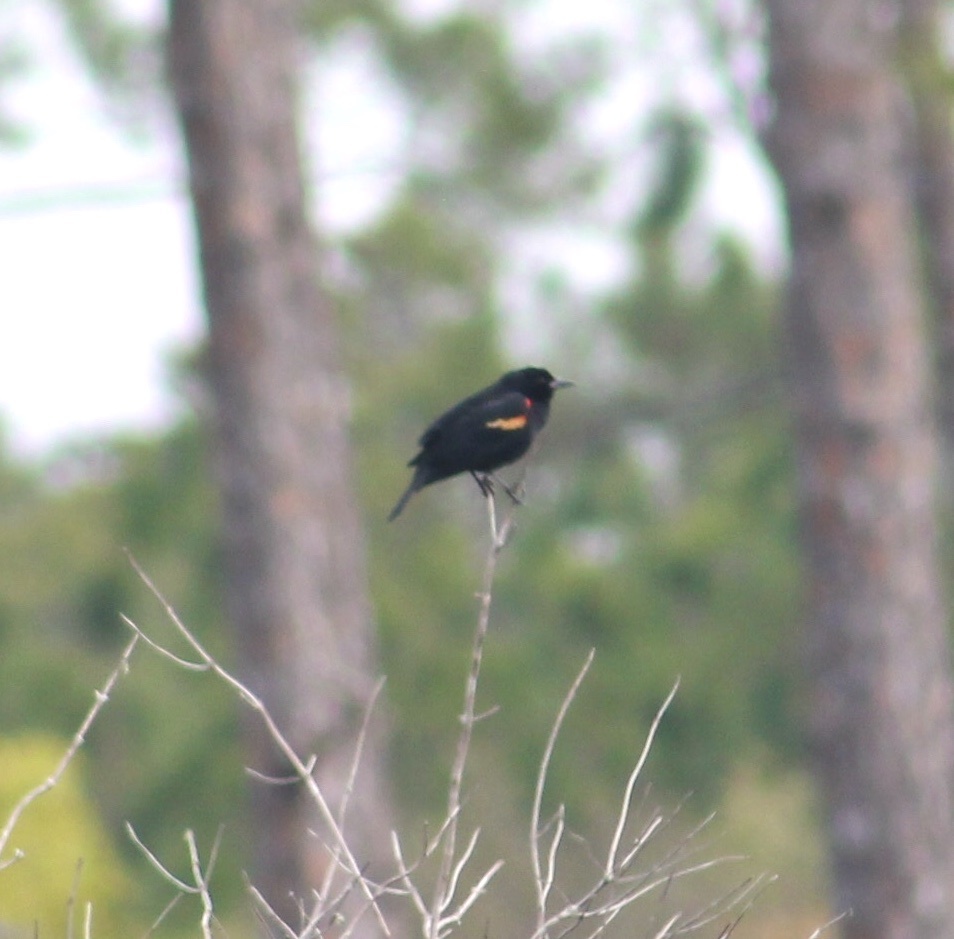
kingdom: Animalia
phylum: Chordata
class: Aves
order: Passeriformes
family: Icteridae
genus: Agelaius
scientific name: Agelaius phoeniceus
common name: Red-winged blackbird
